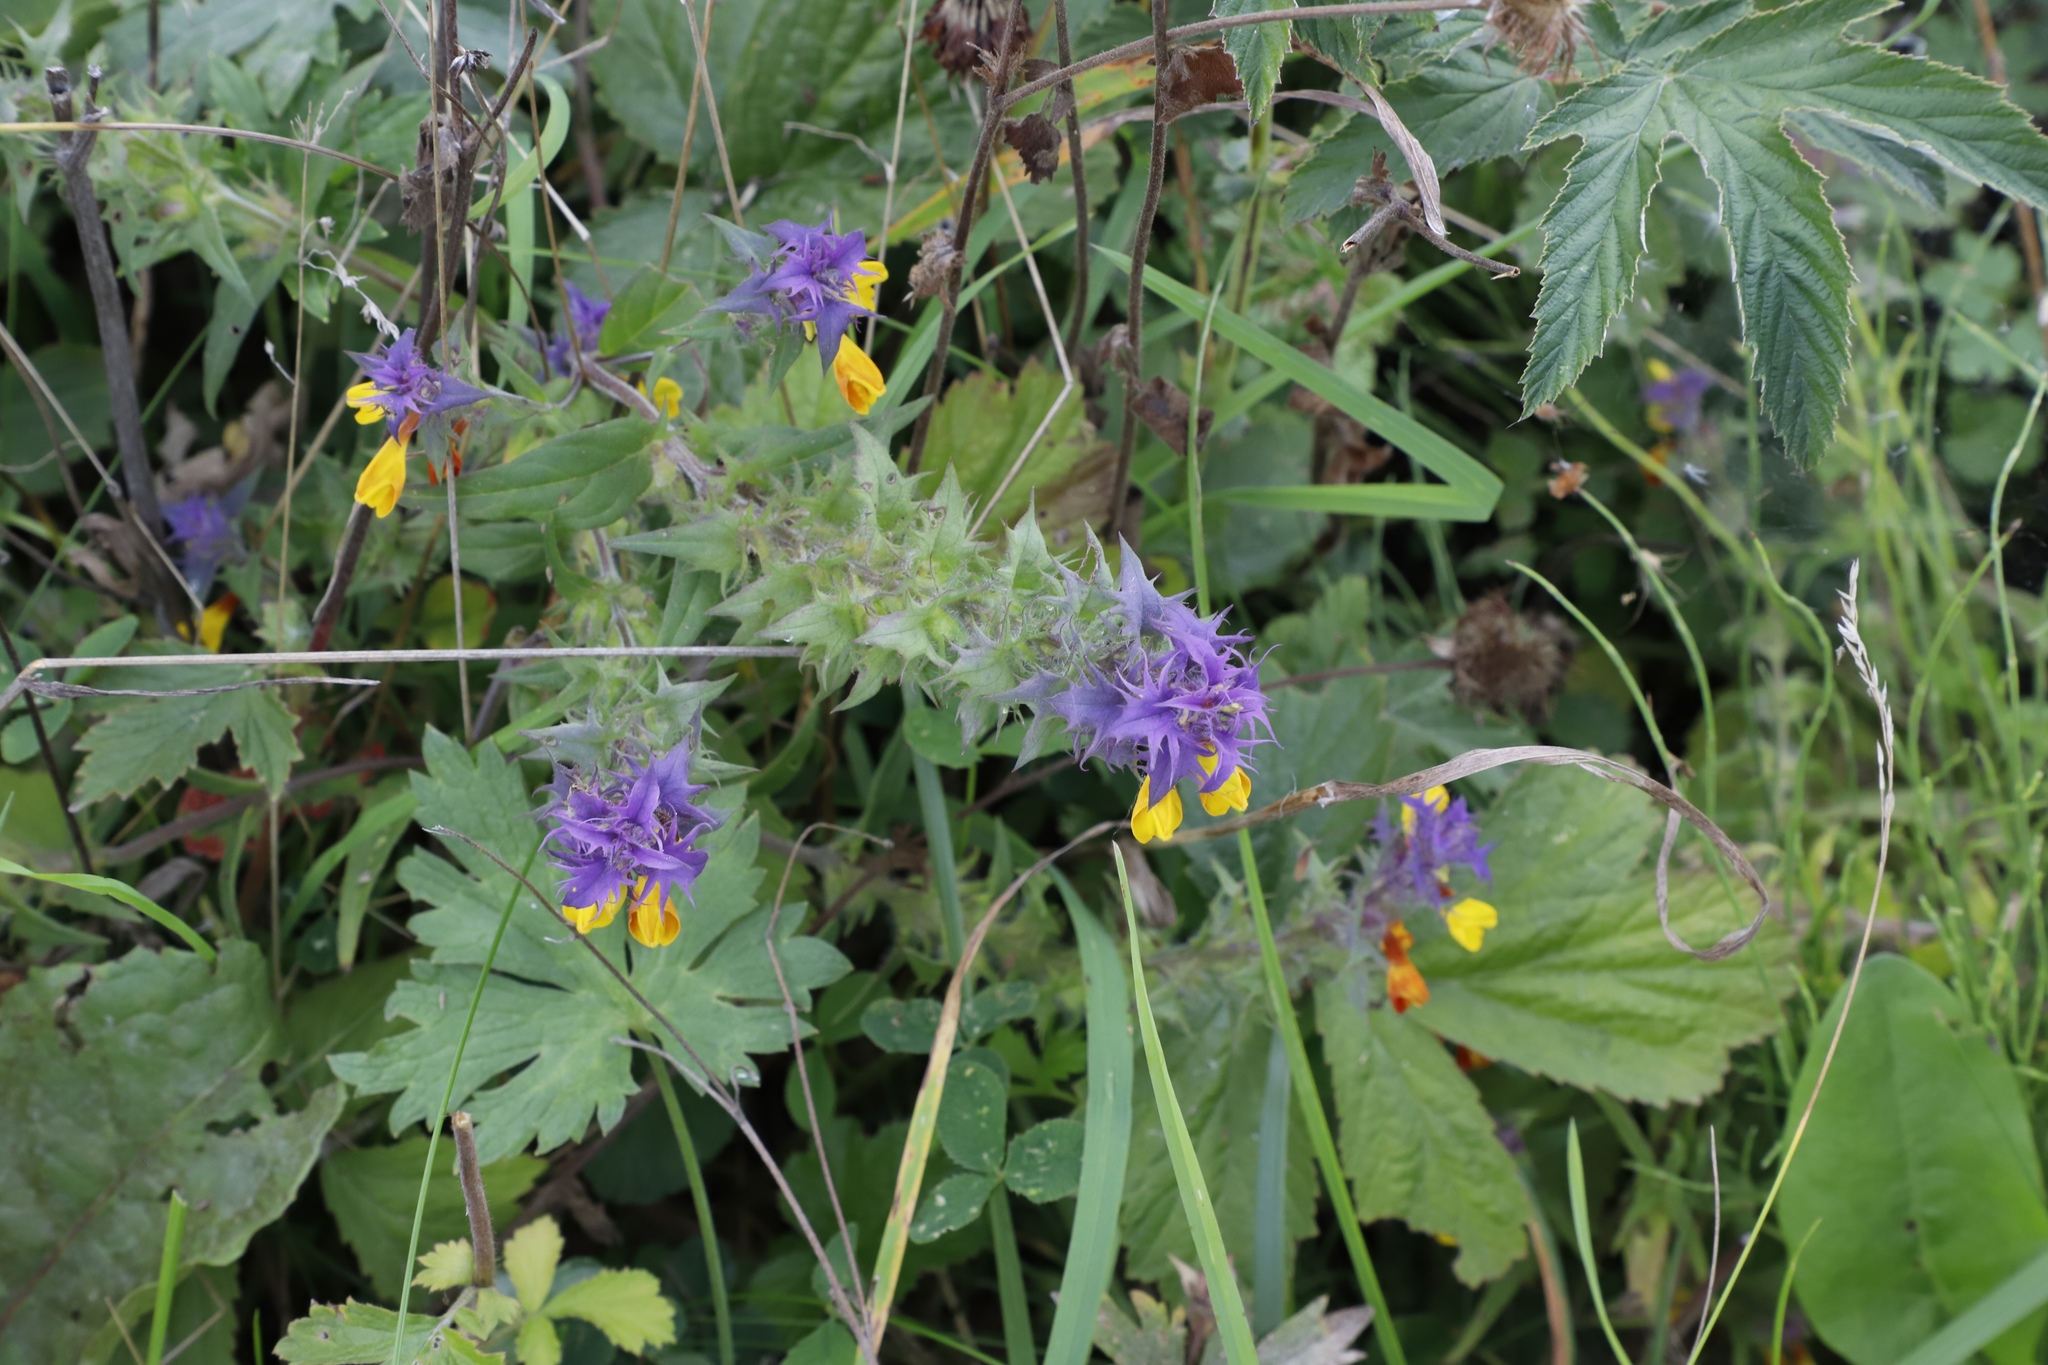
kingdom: Plantae
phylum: Tracheophyta
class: Magnoliopsida
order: Lamiales
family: Orobanchaceae
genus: Melampyrum
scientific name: Melampyrum nemorosum
